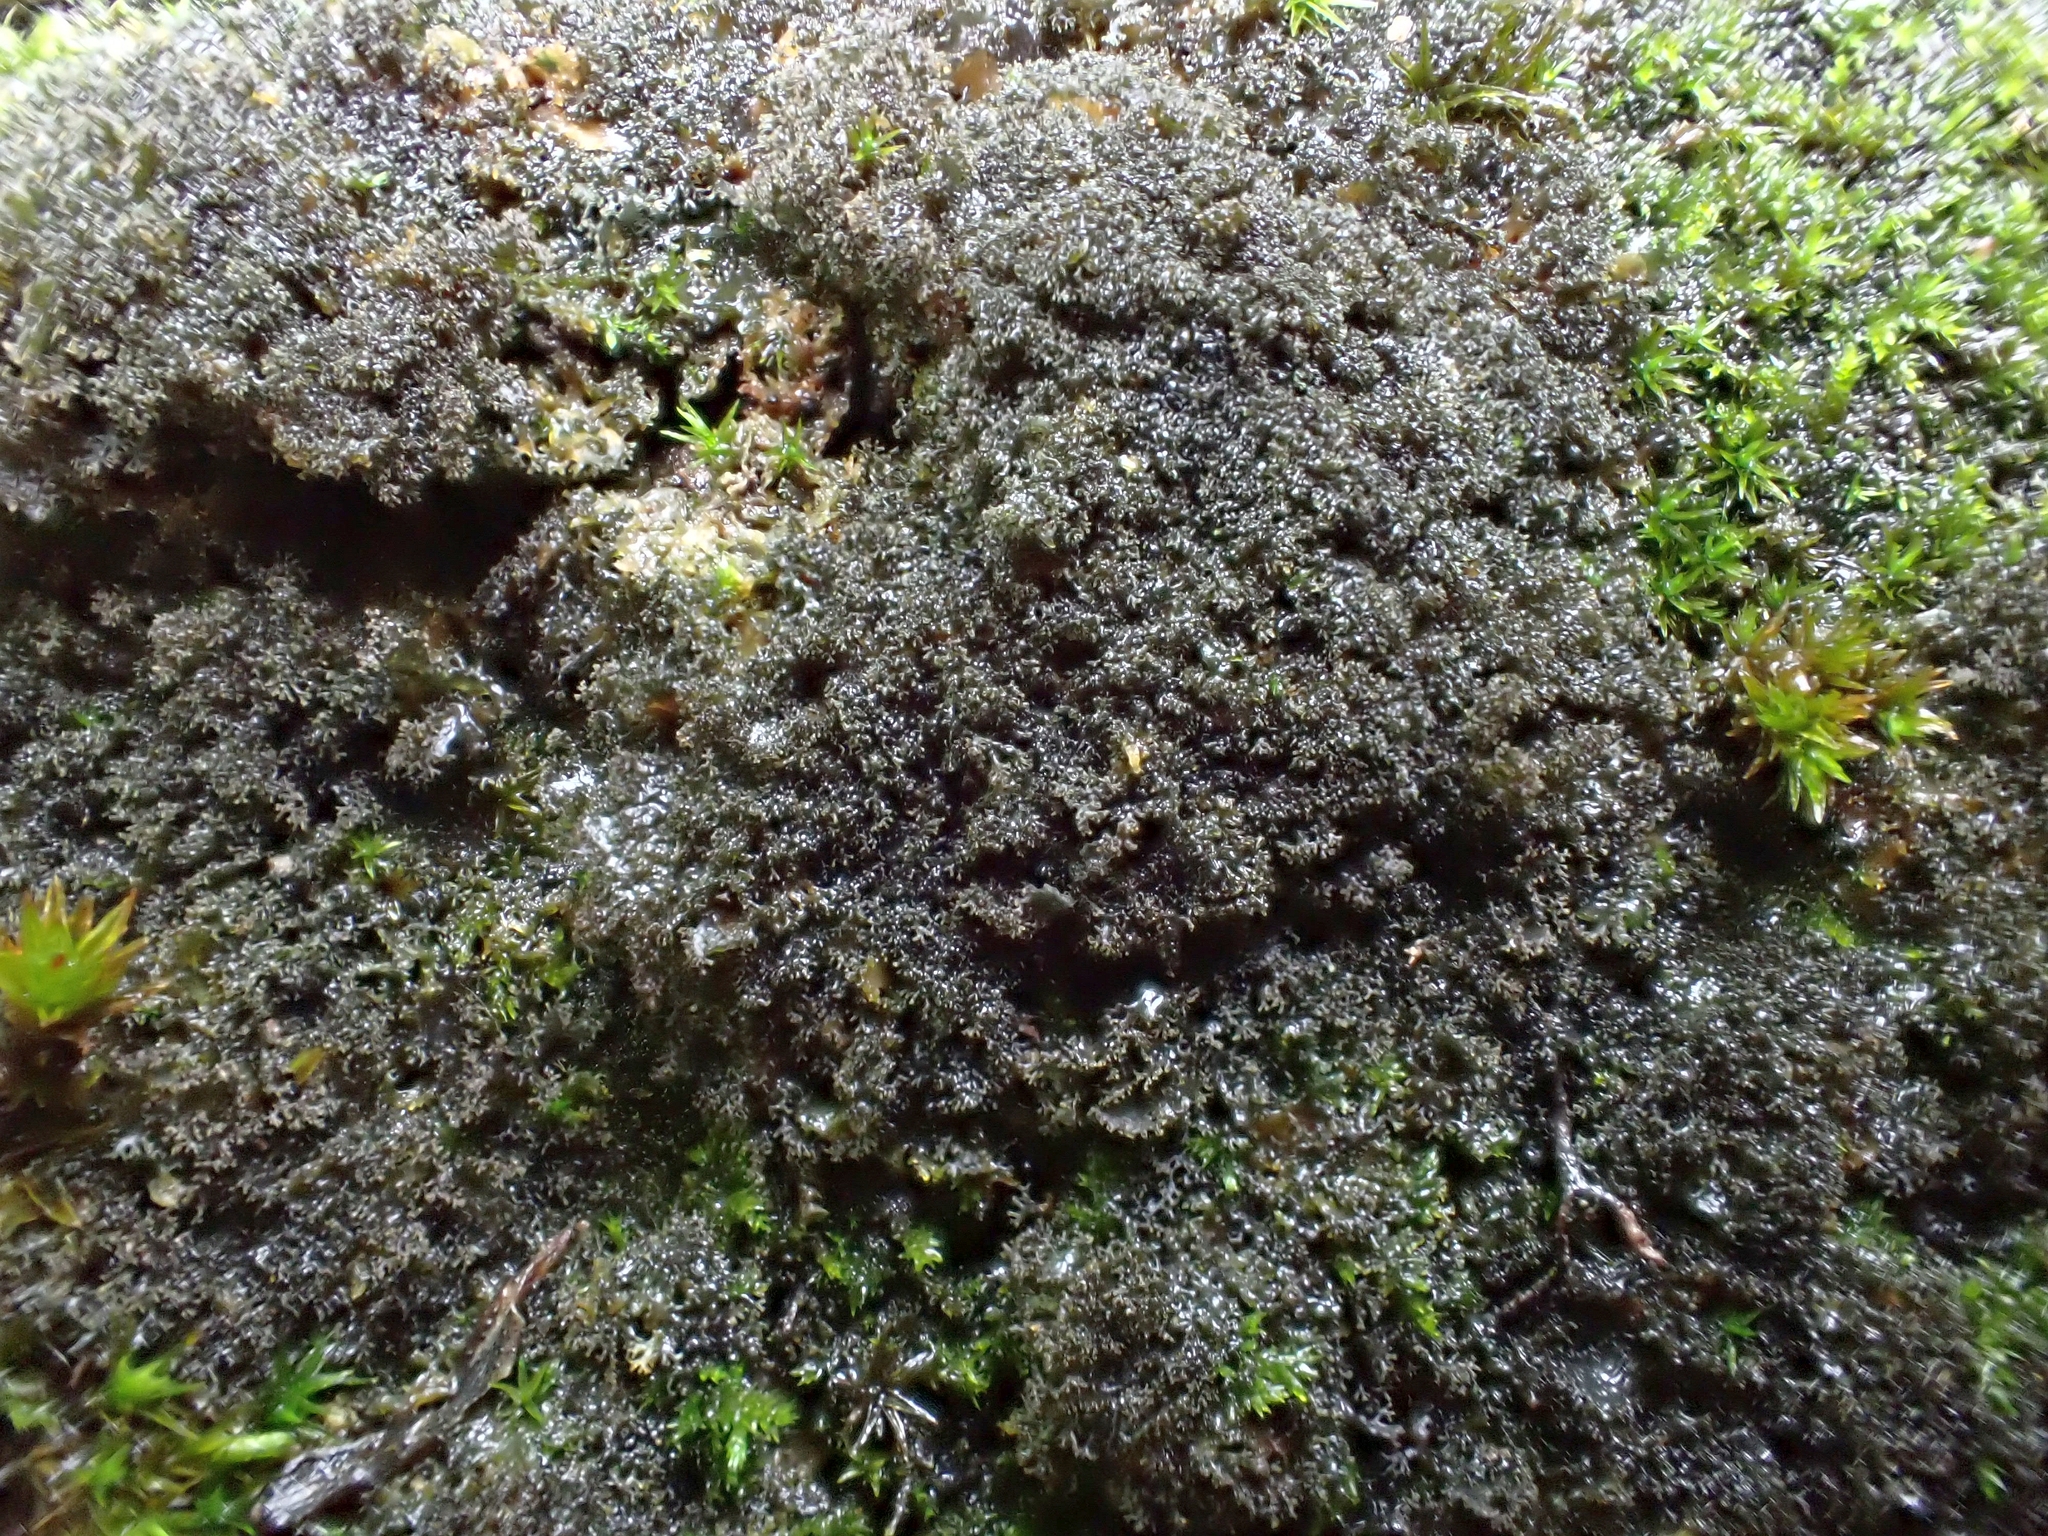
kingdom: Fungi
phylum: Ascomycota
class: Lecanoromycetes
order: Peltigerales
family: Collemataceae
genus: Scytinium
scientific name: Scytinium lichenoides
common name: Tattered jellyskin lichen
